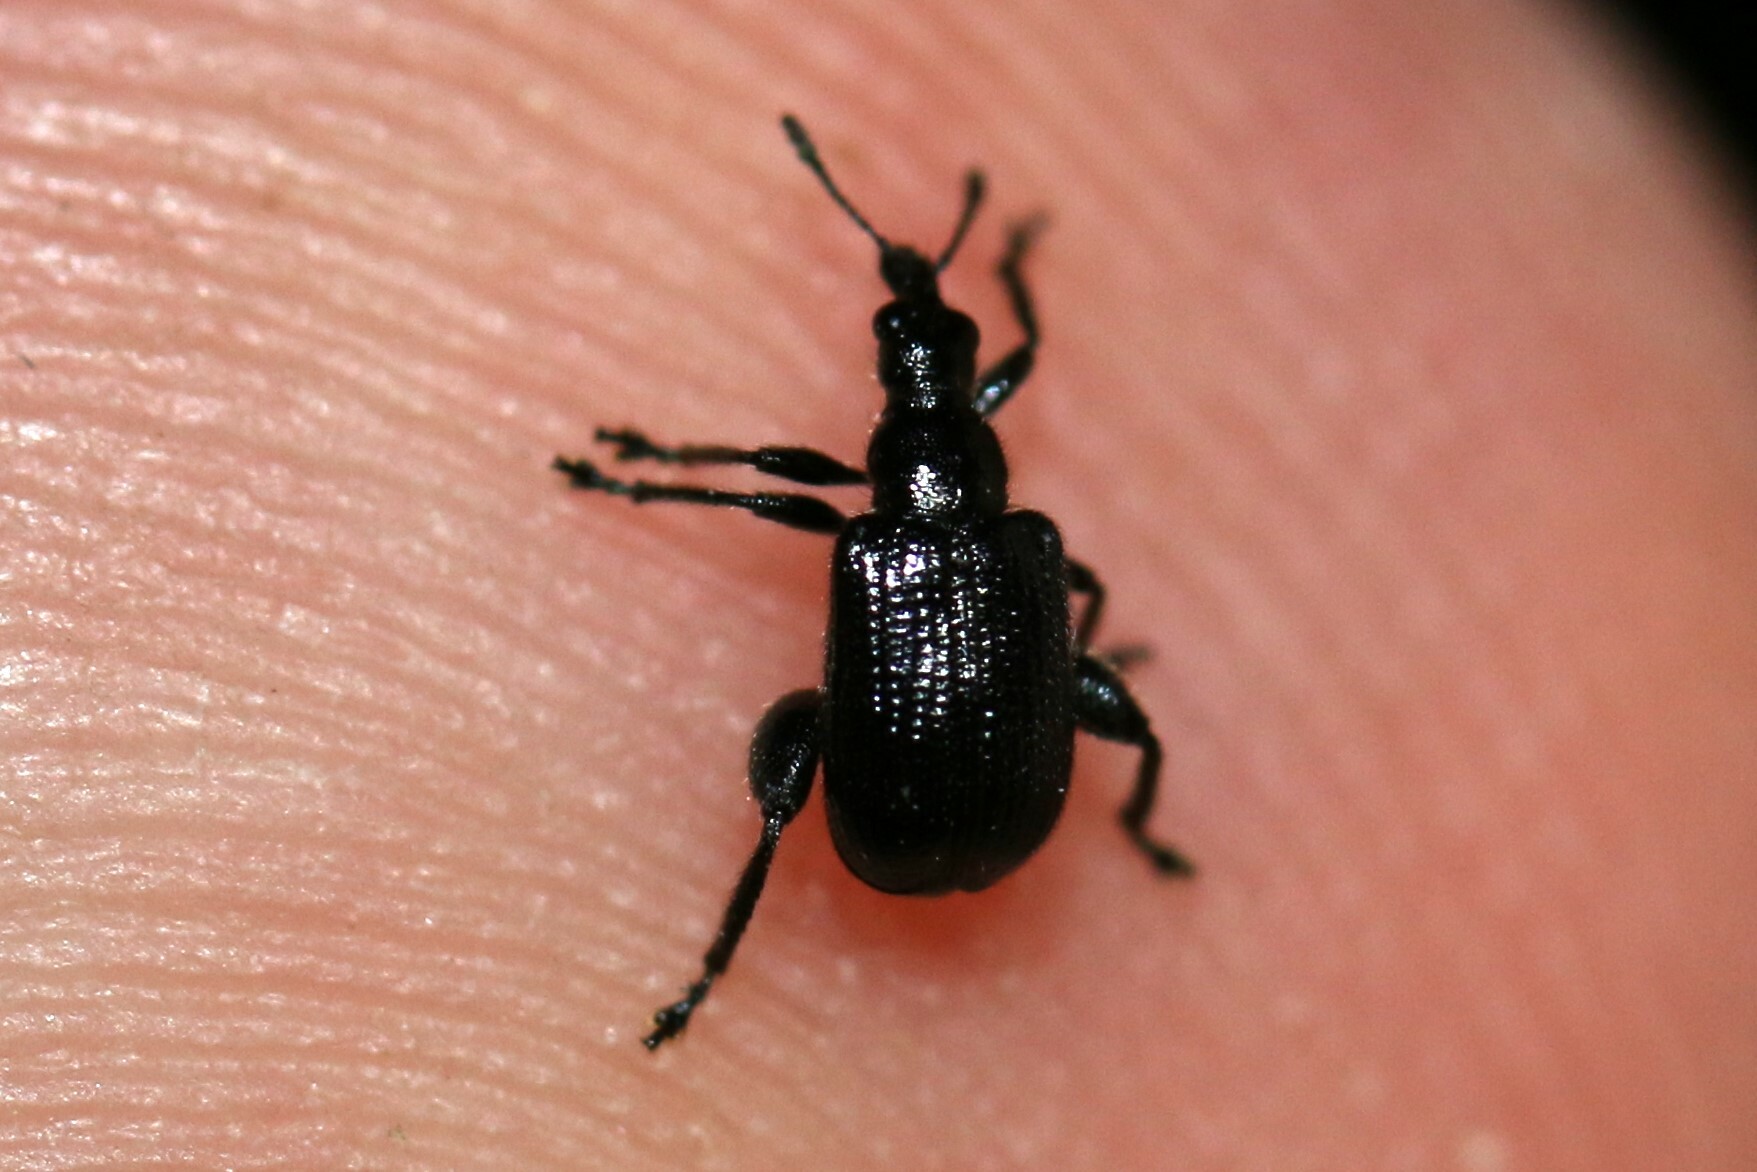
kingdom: Animalia
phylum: Arthropoda
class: Insecta
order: Coleoptera
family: Attelabidae
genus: Deporaus
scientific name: Deporaus betulae
